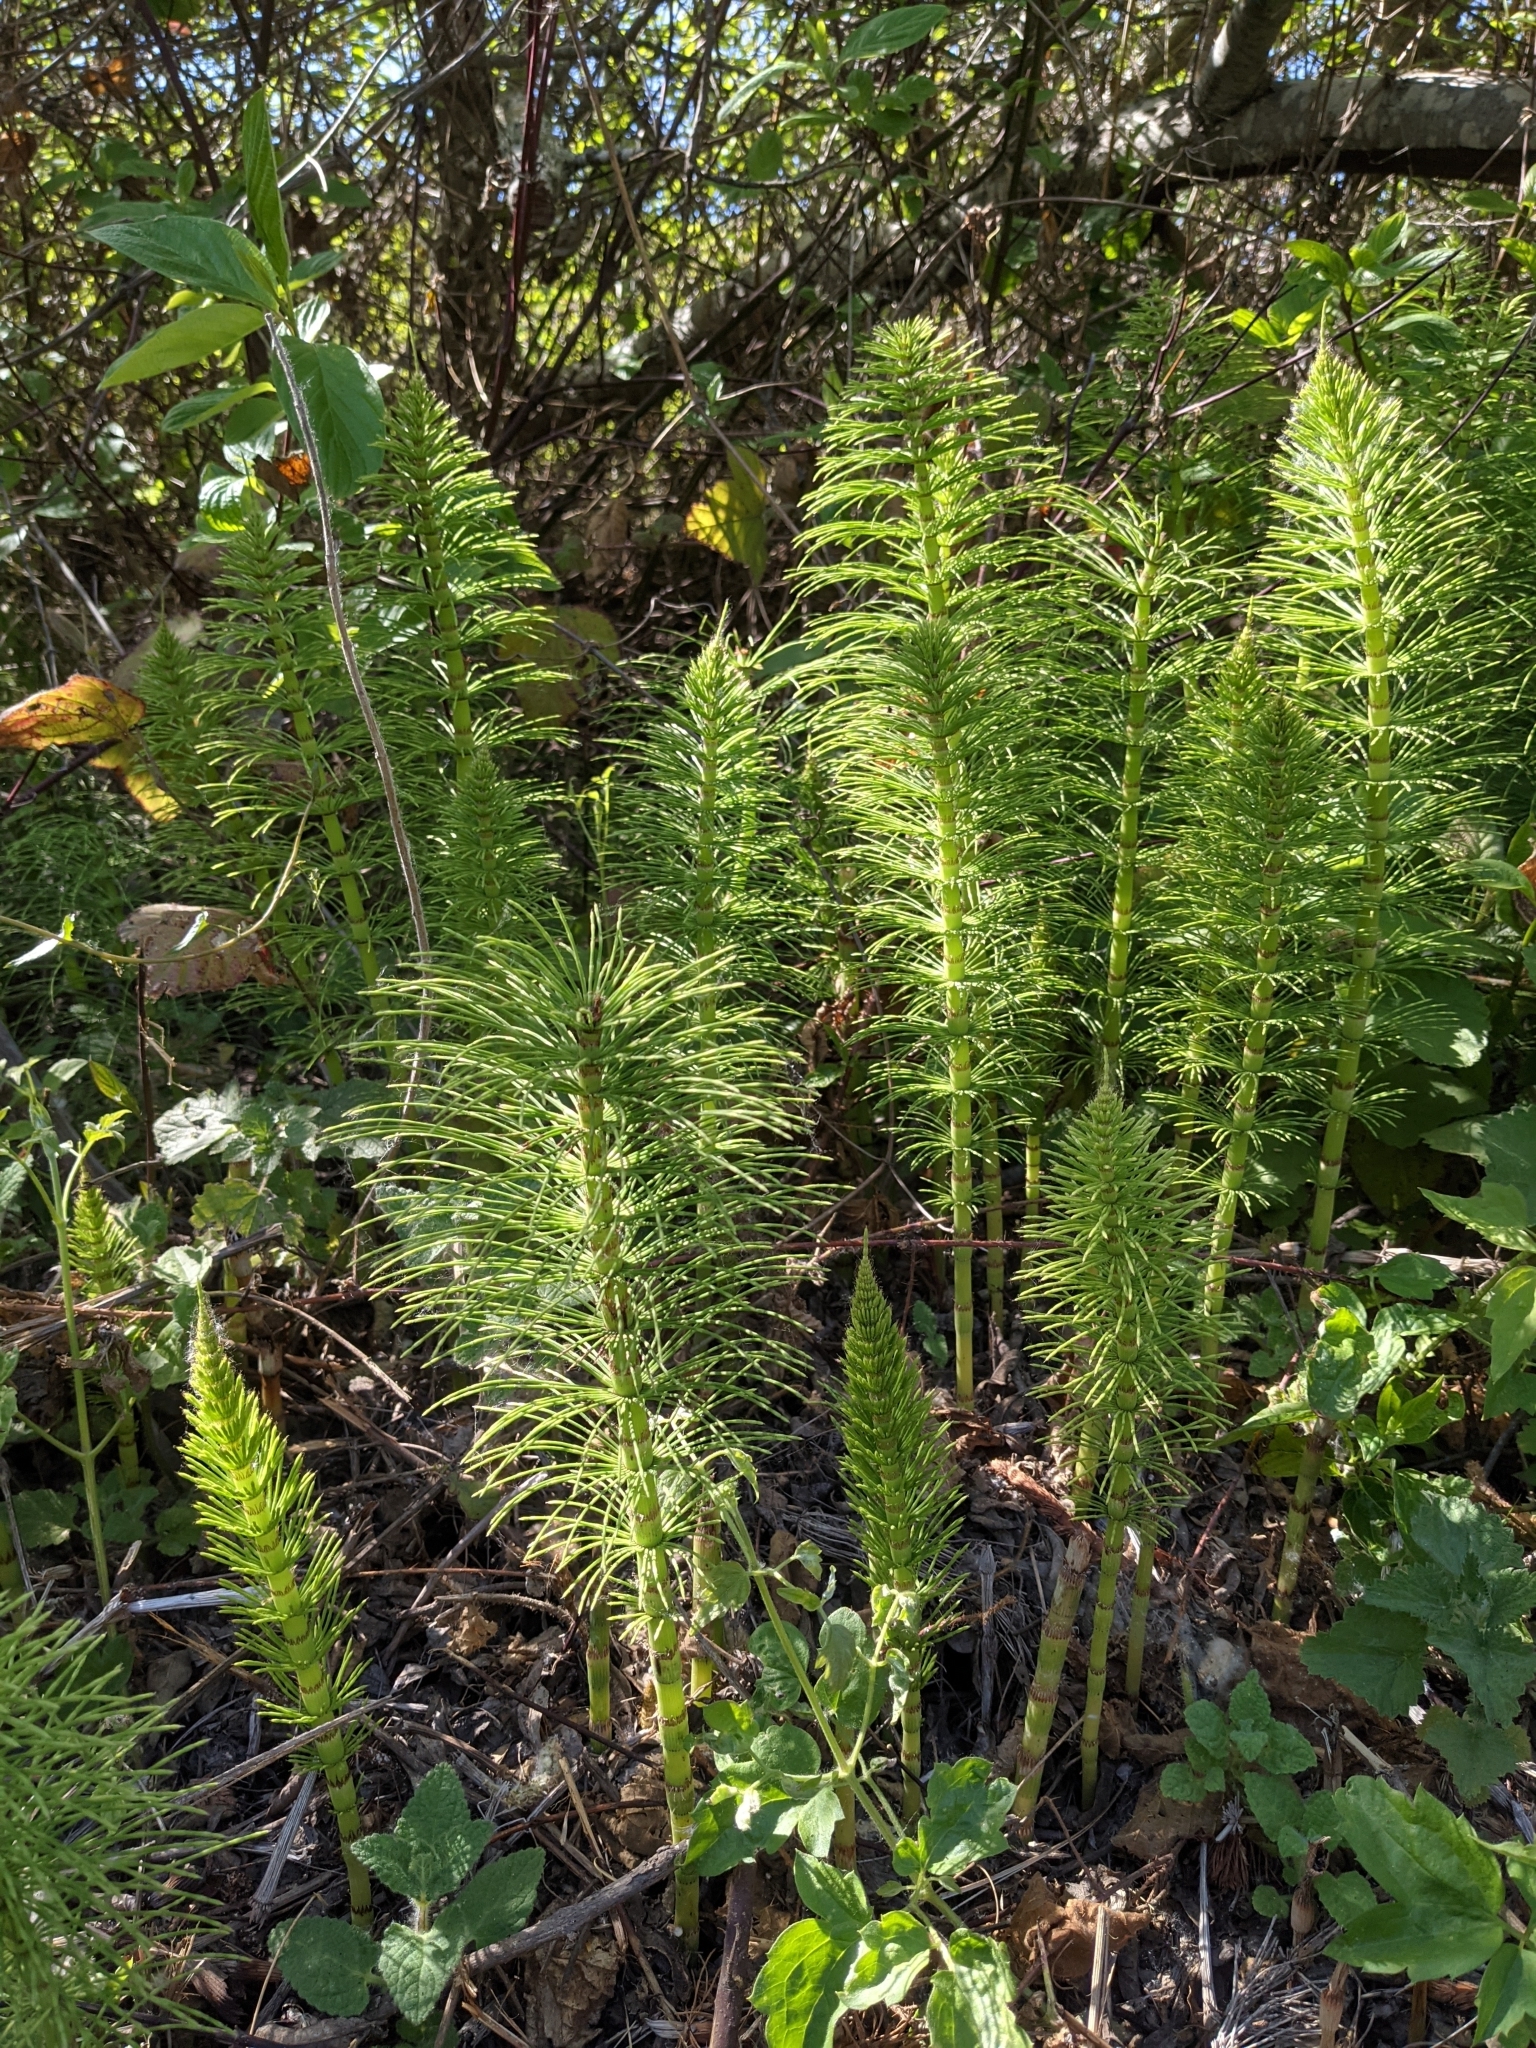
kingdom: Plantae
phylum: Tracheophyta
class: Polypodiopsida
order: Equisetales
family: Equisetaceae
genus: Equisetum
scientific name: Equisetum telmateia
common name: Great horsetail
